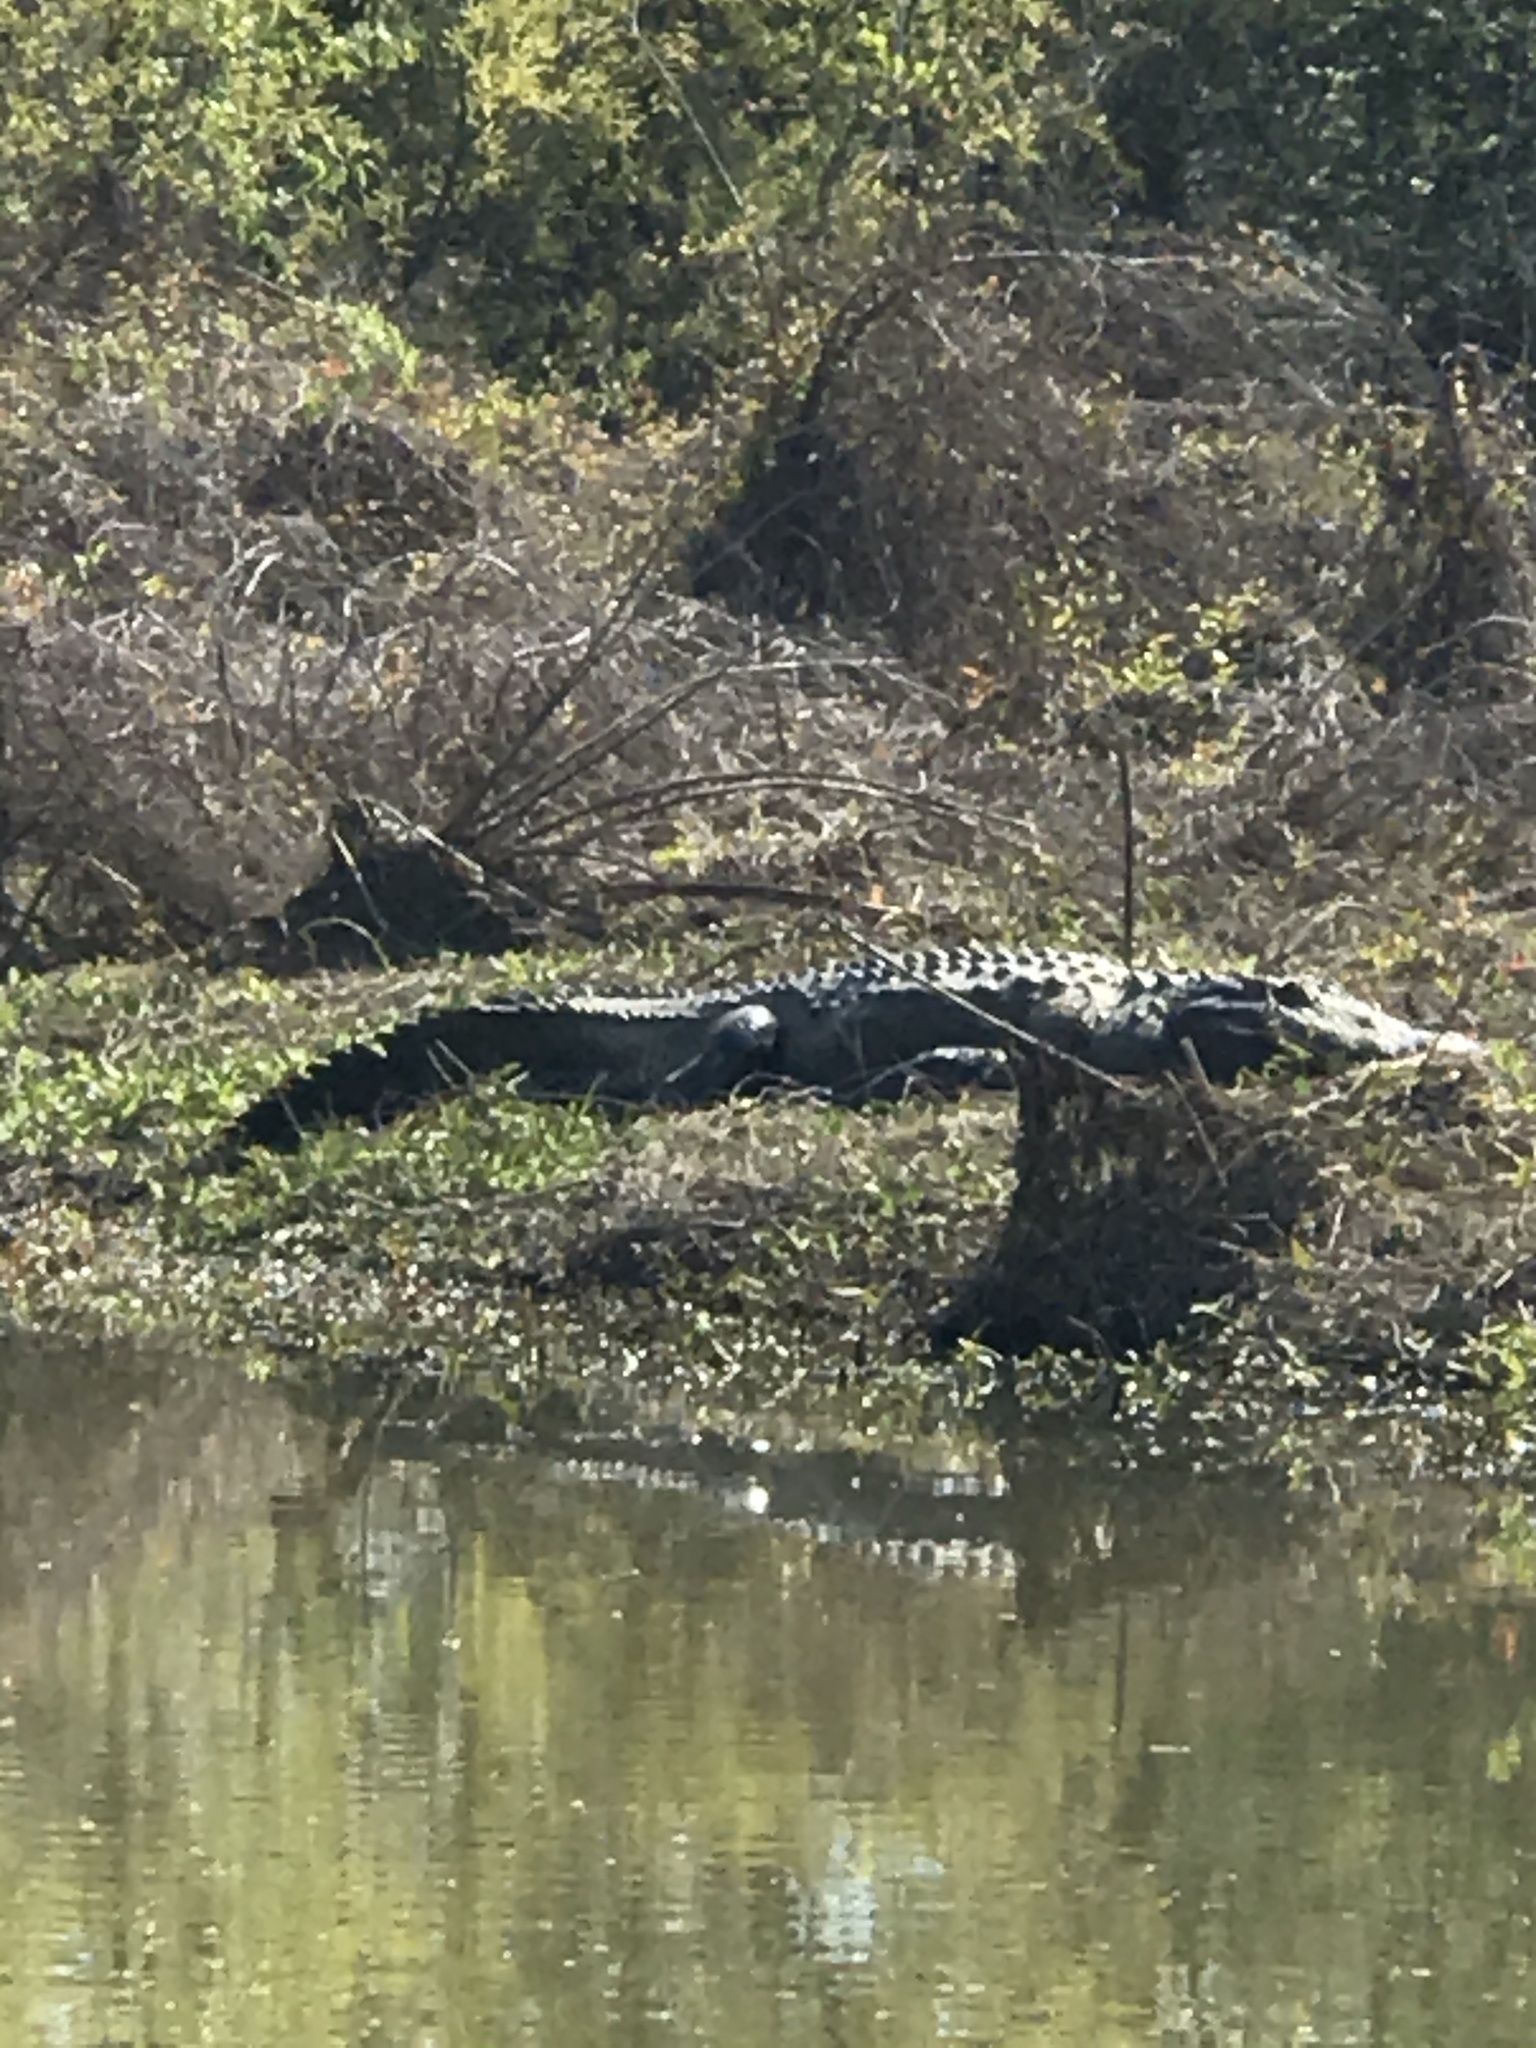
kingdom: Animalia
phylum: Chordata
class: Crocodylia
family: Alligatoridae
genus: Alligator
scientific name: Alligator mississippiensis
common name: American alligator
